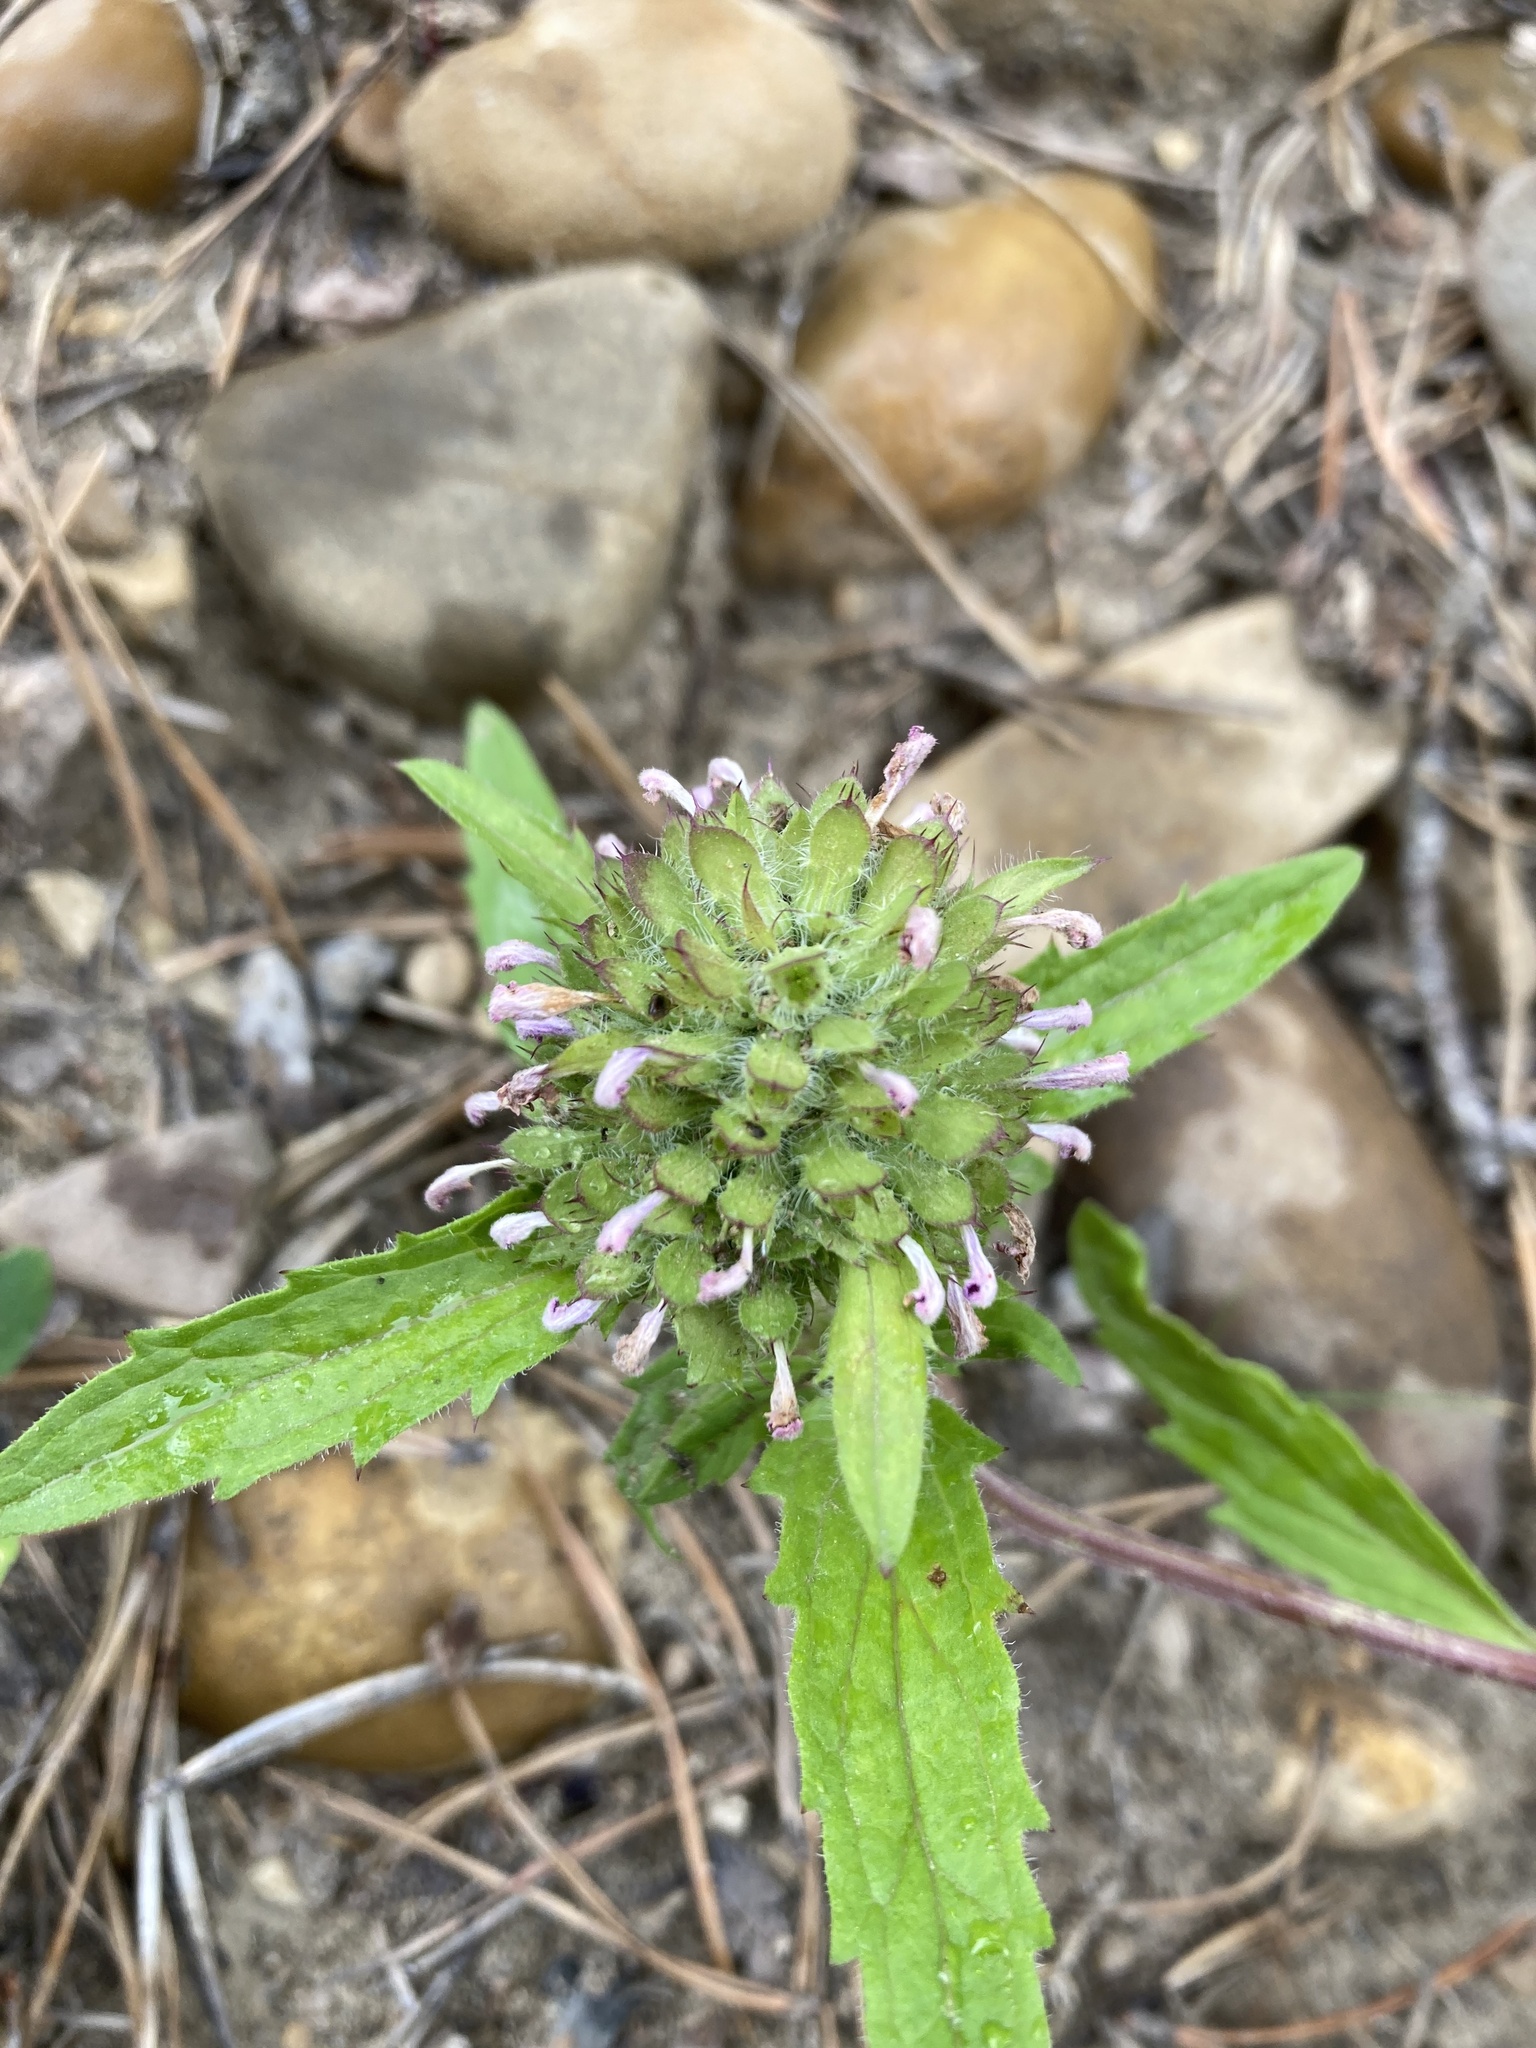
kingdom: Plantae
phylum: Tracheophyta
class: Magnoliopsida
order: Lamiales
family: Lamiaceae
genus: Dracocephalum
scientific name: Dracocephalum parviflorum
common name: American dragonhead
